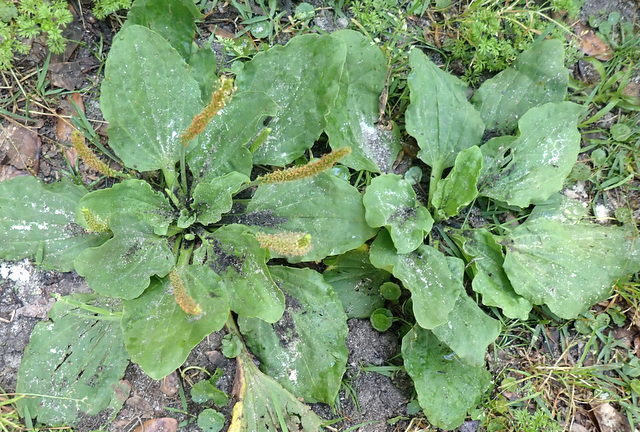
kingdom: Plantae
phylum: Tracheophyta
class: Magnoliopsida
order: Lamiales
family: Plantaginaceae
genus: Plantago
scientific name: Plantago major
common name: Common plantain
